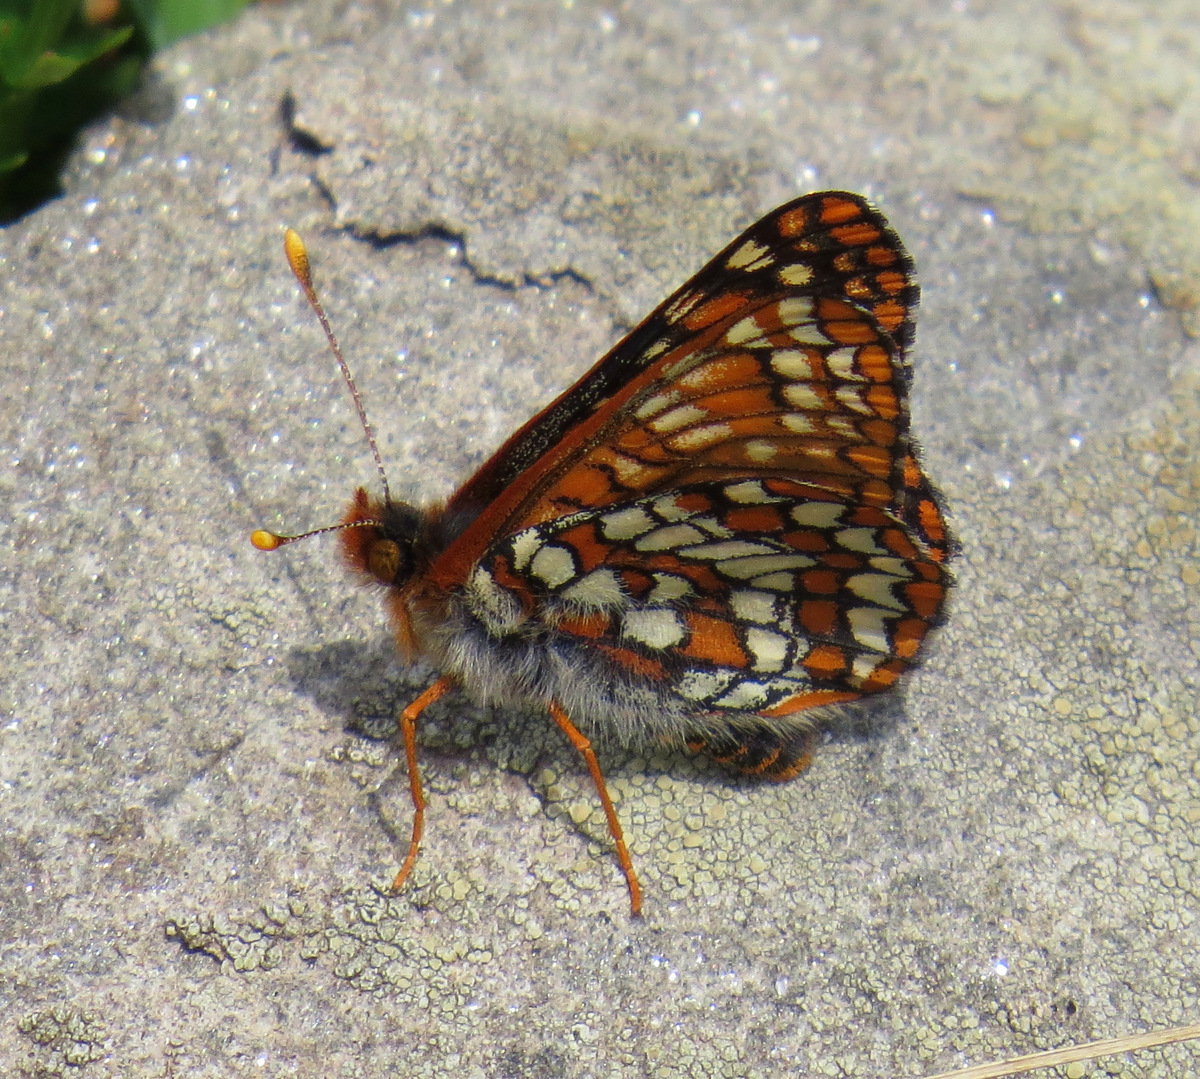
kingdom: Animalia
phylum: Arthropoda
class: Insecta
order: Lepidoptera
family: Nymphalidae
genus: Occidryas
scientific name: Occidryas anicia
